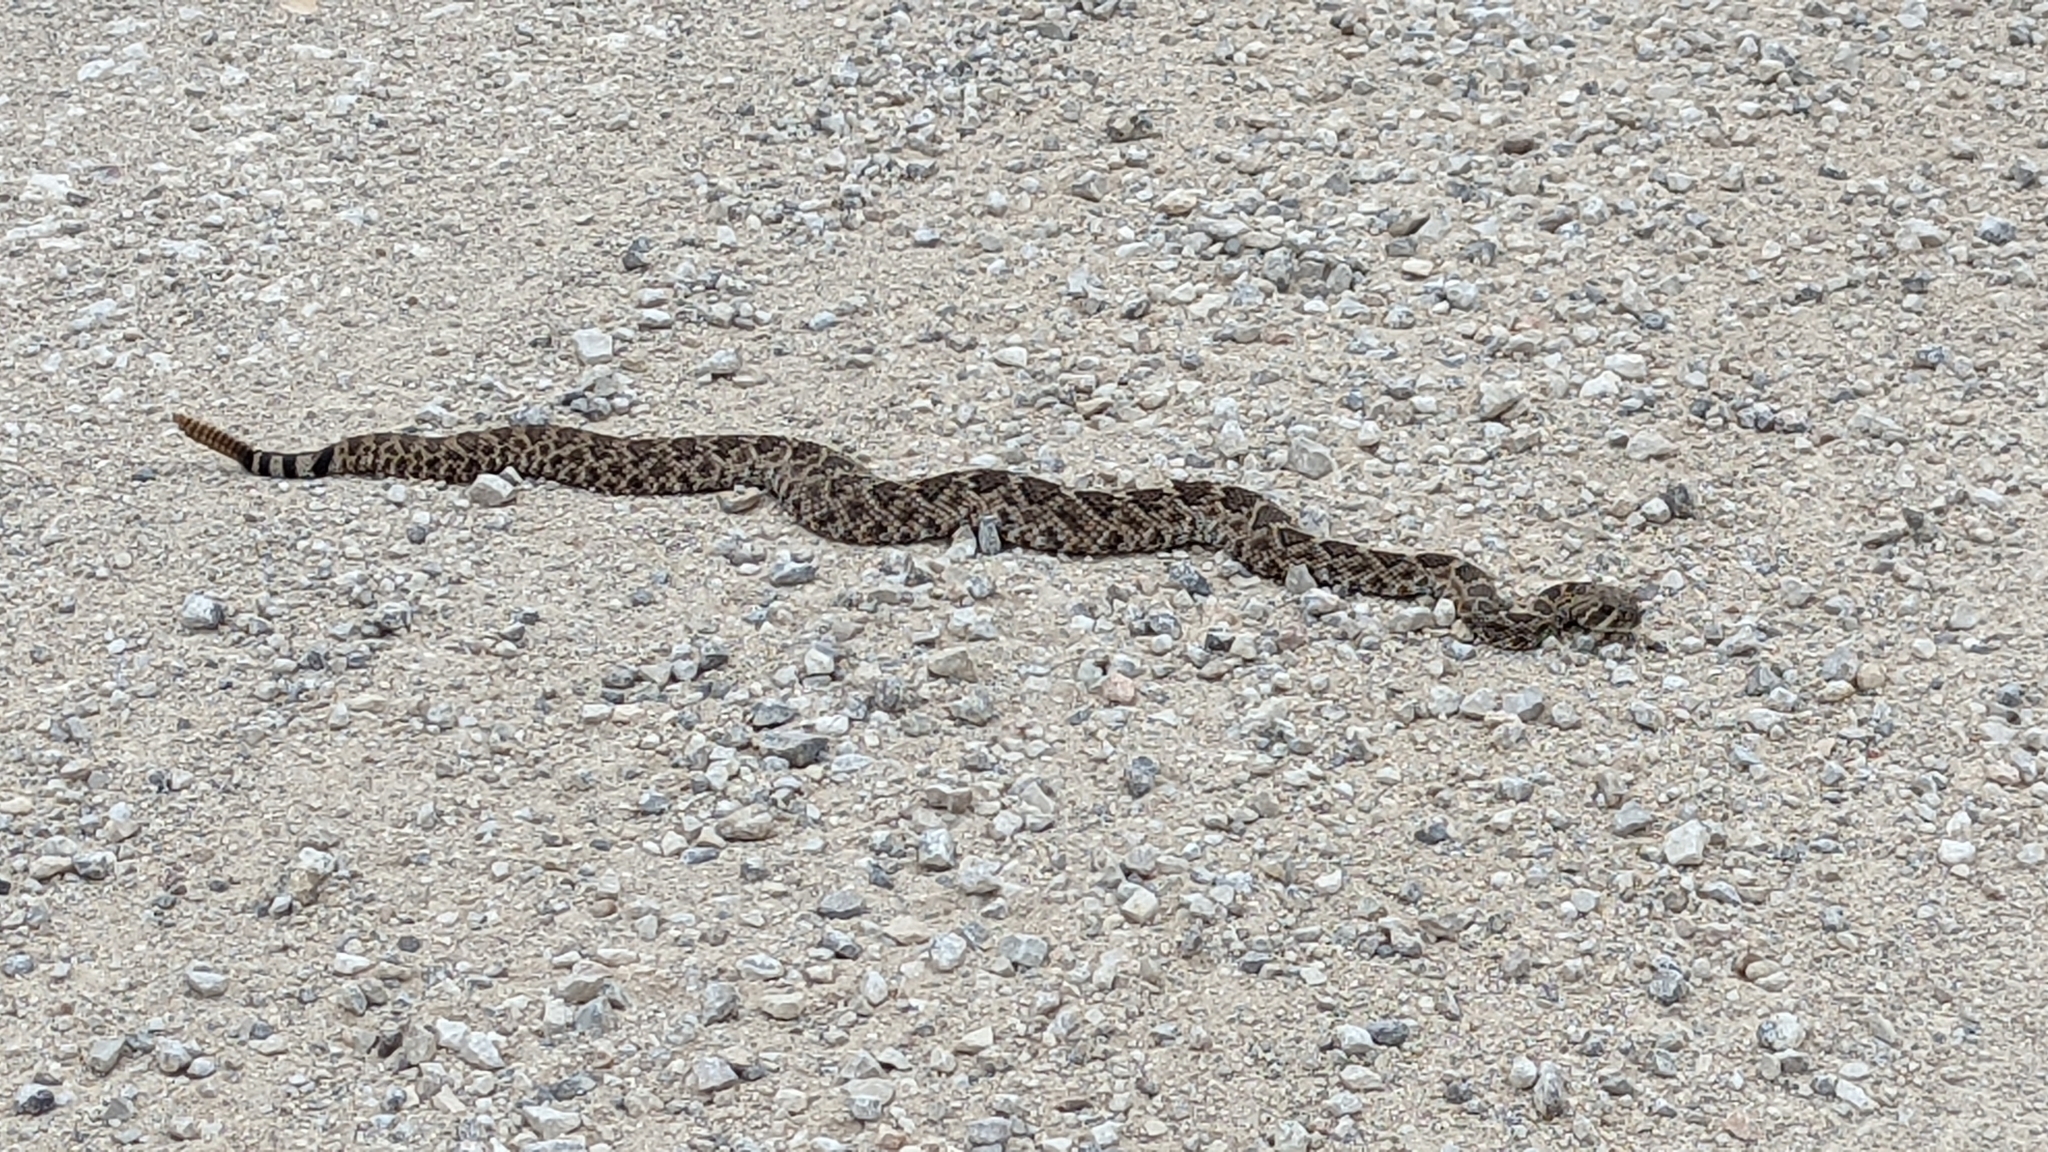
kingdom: Animalia
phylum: Chordata
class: Squamata
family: Viperidae
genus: Crotalus
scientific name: Crotalus atrox
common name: Western diamond-backed rattlesnake
